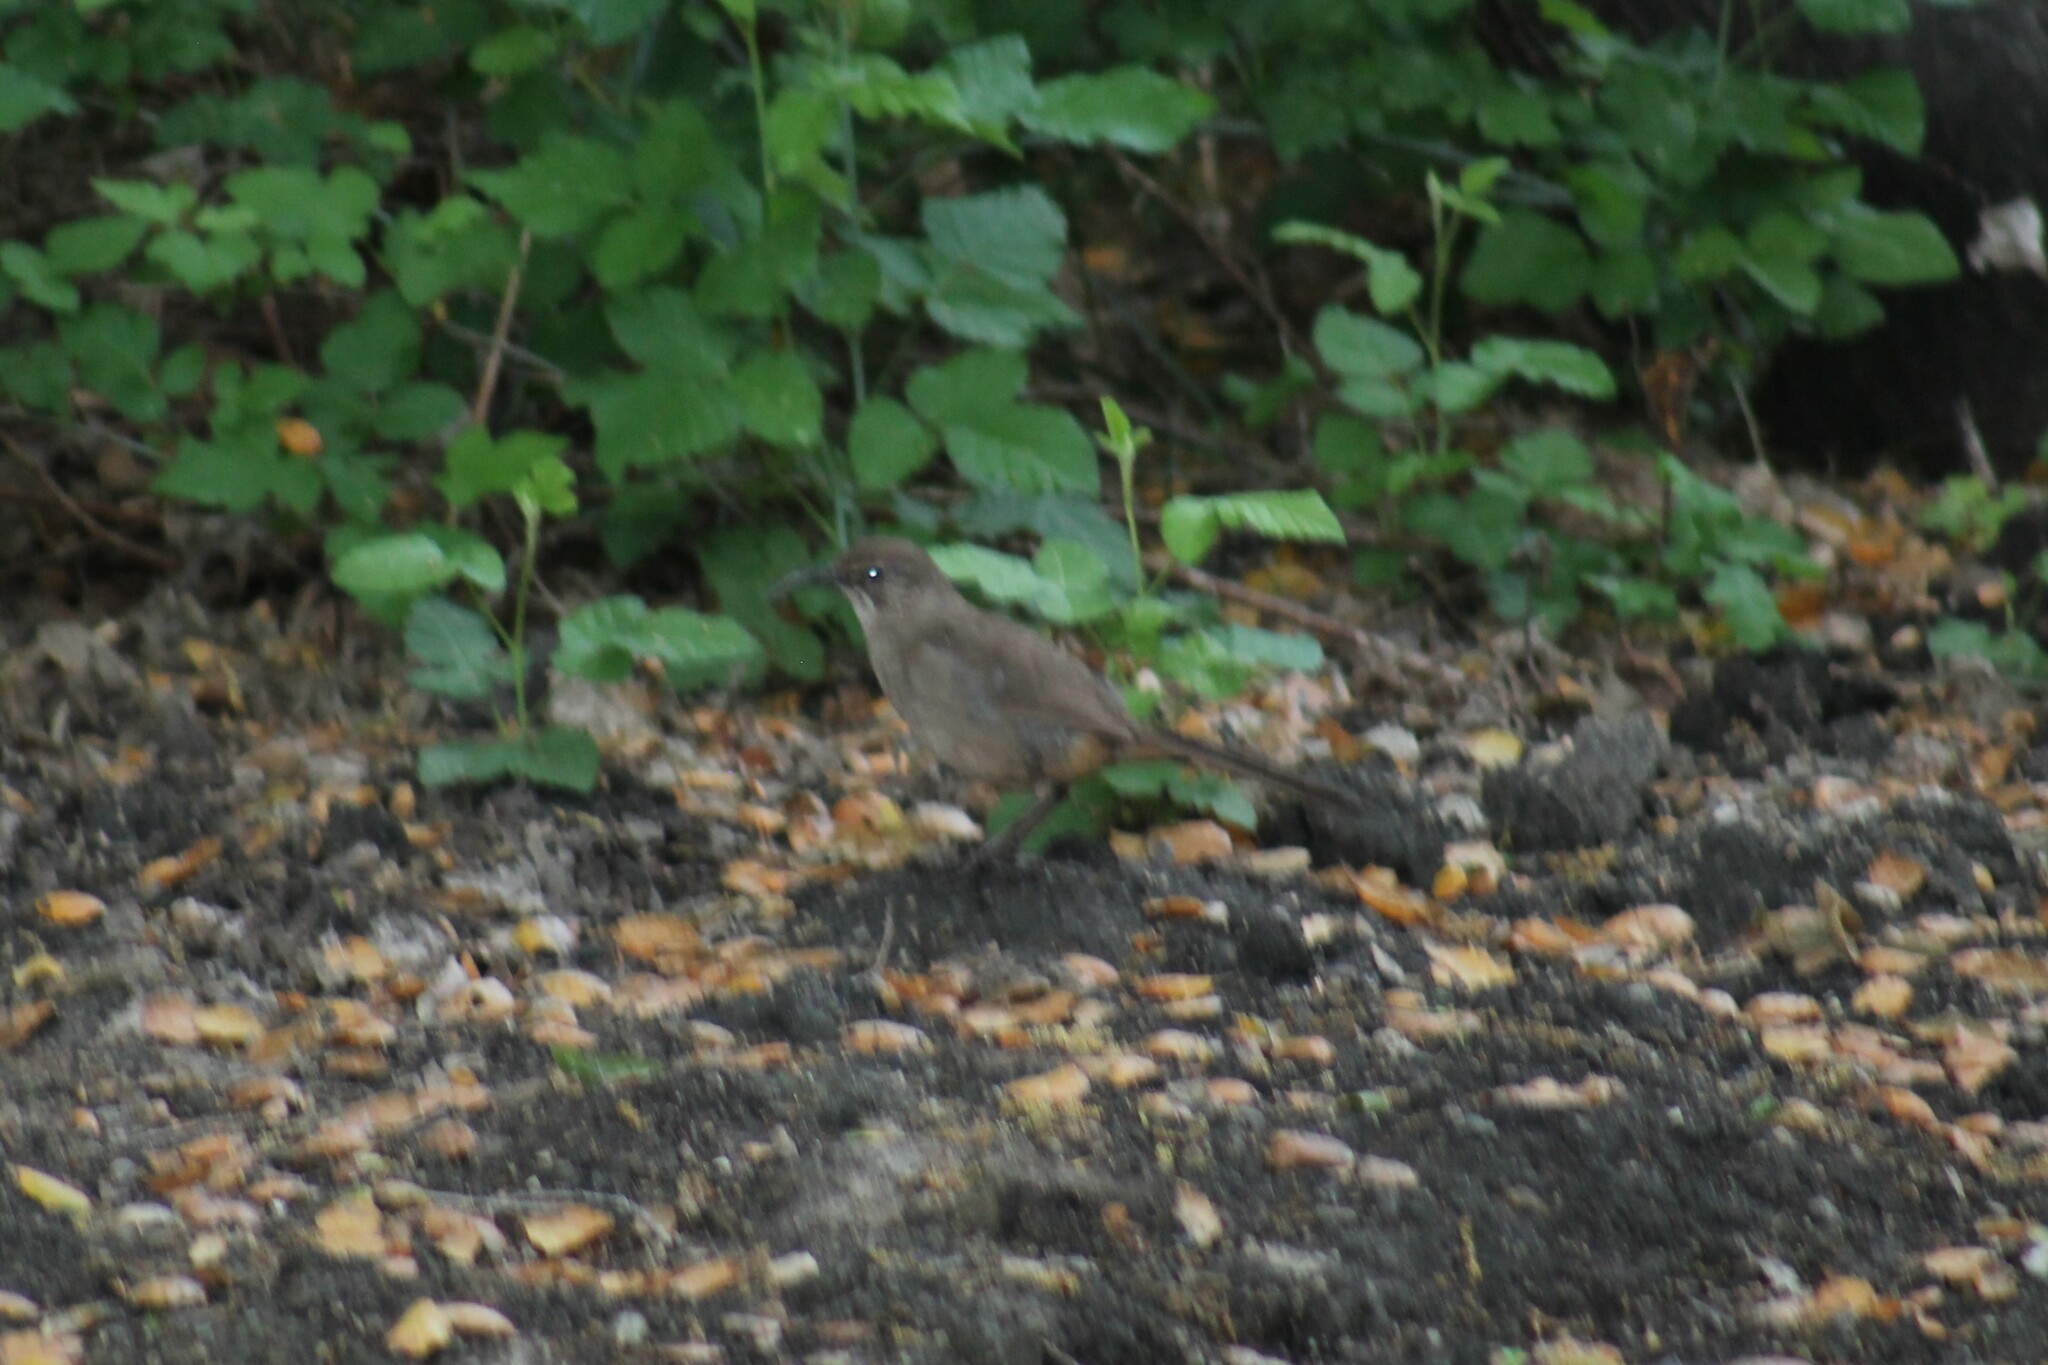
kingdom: Animalia
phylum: Chordata
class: Aves
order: Passeriformes
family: Mimidae
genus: Toxostoma
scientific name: Toxostoma redivivum
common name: California thrasher
